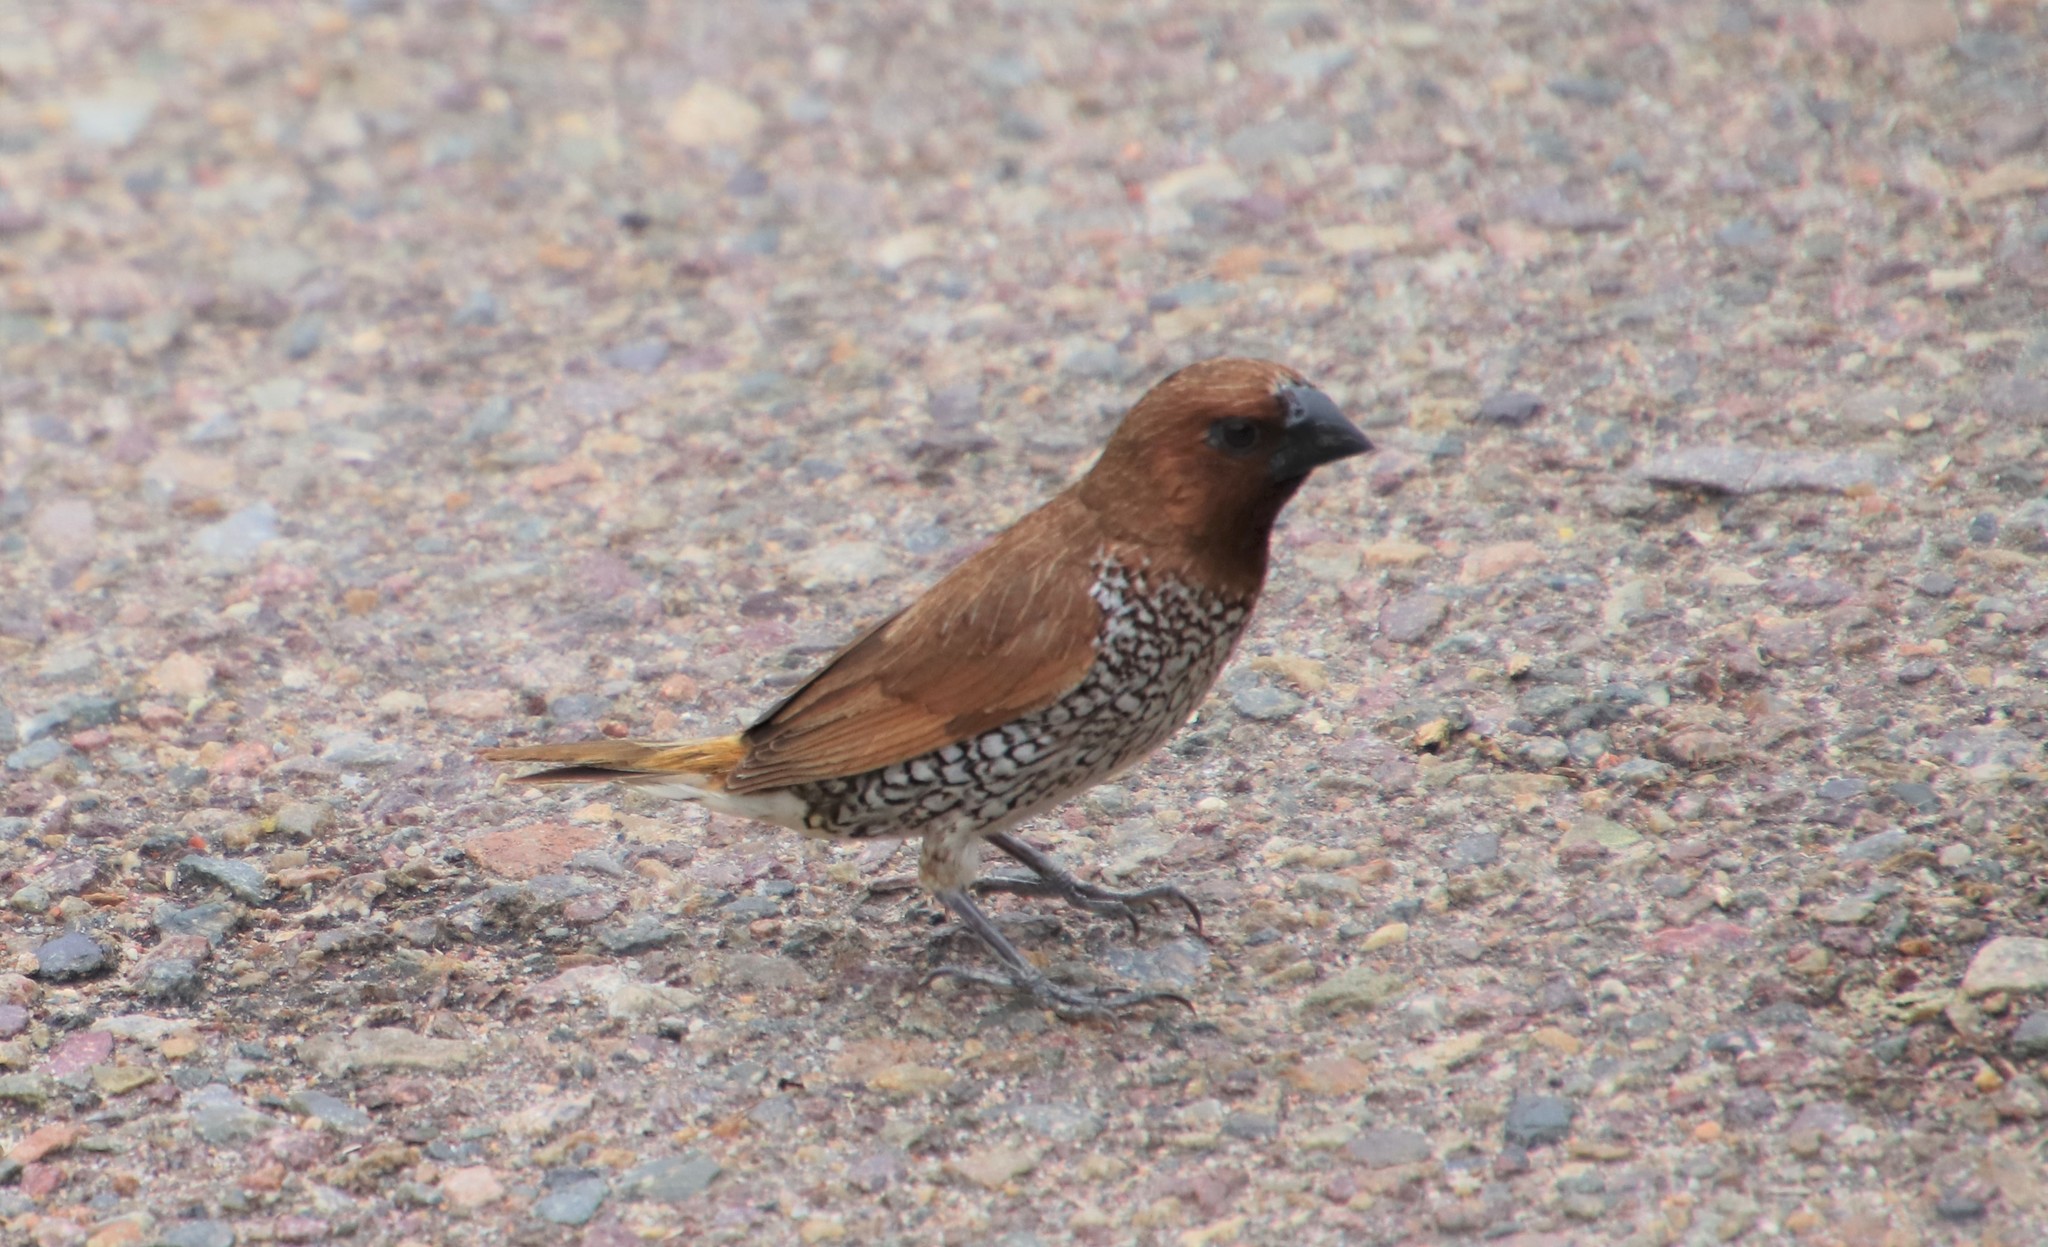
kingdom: Animalia
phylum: Chordata
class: Aves
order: Passeriformes
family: Estrildidae
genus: Lonchura
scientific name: Lonchura punctulata
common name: Scaly-breasted munia
